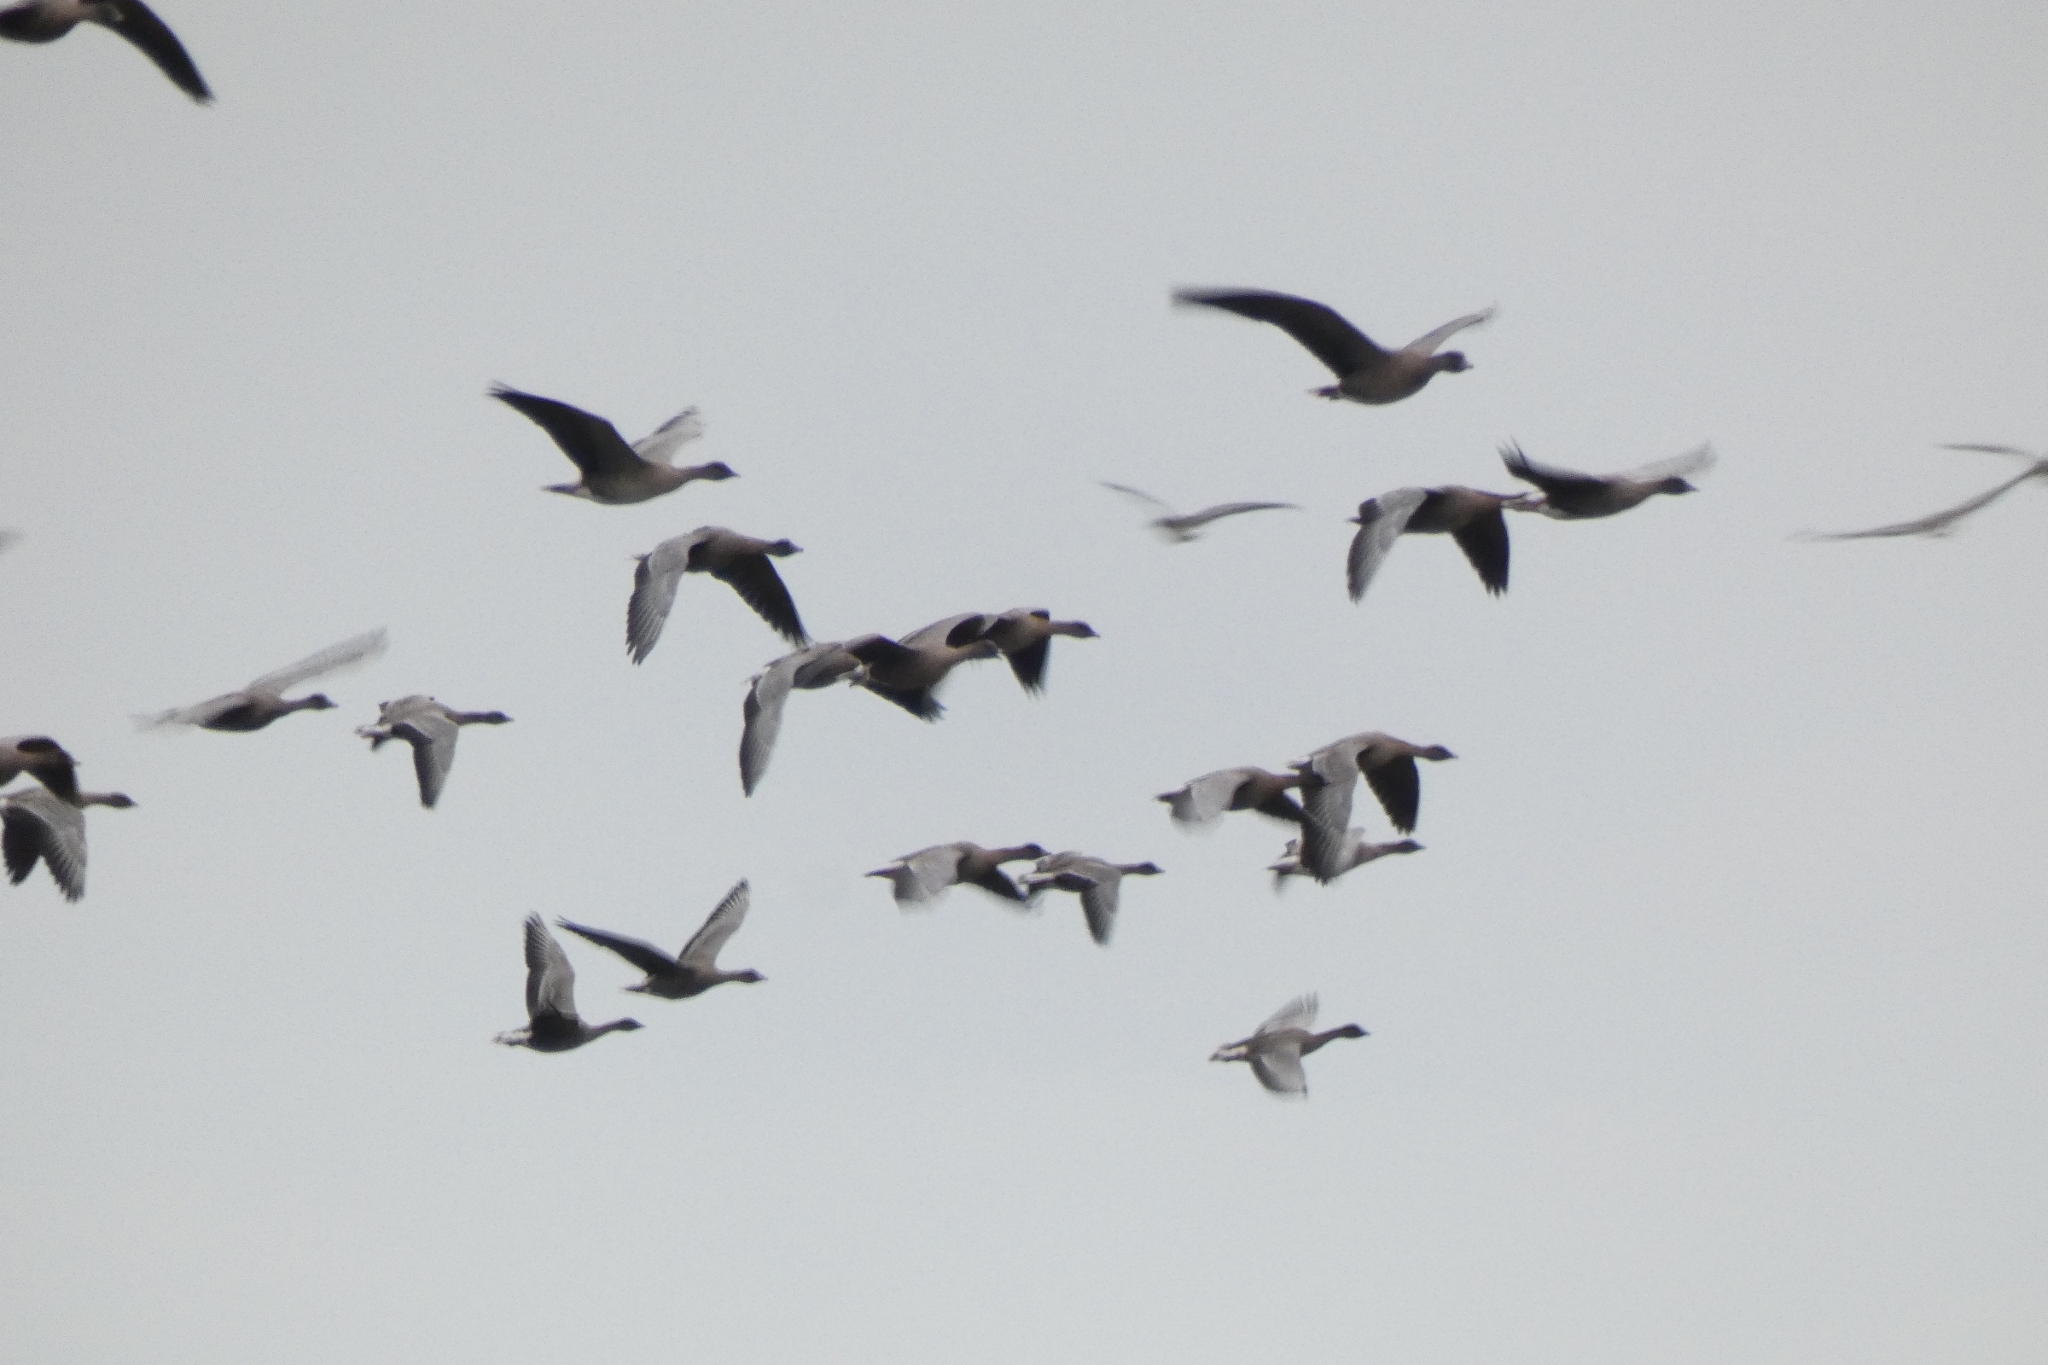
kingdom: Animalia
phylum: Chordata
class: Aves
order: Anseriformes
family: Anatidae
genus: Anser
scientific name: Anser brachyrhynchus
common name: Pink-footed goose
